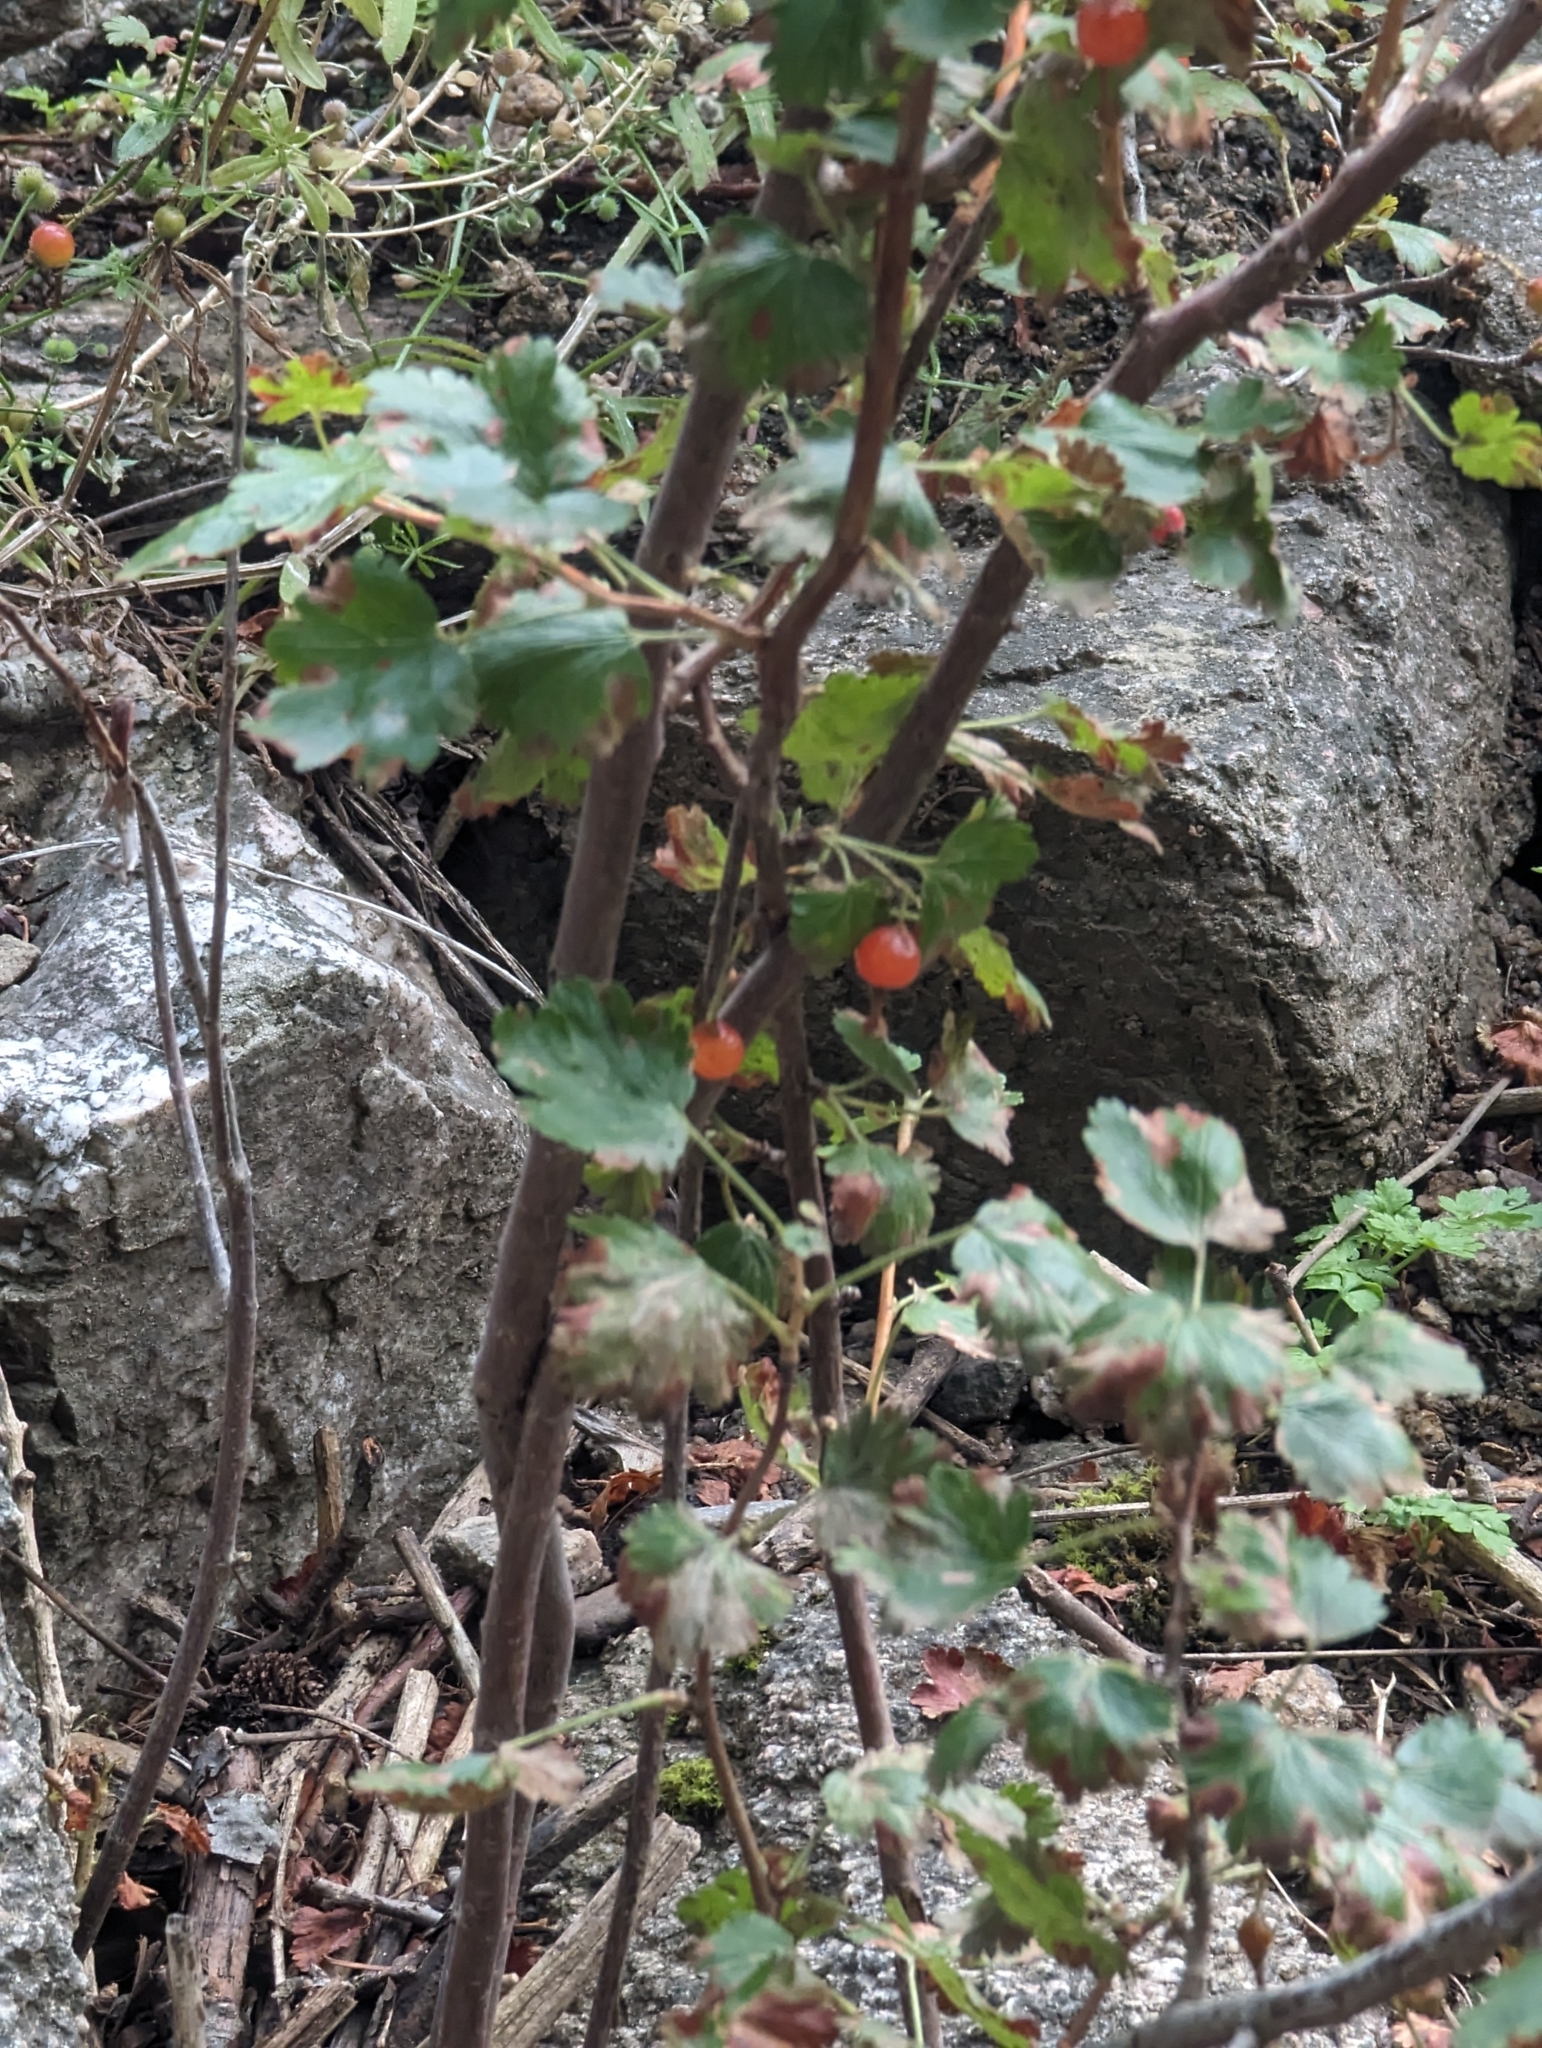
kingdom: Plantae
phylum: Tracheophyta
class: Magnoliopsida
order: Saxifragales
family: Grossulariaceae
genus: Ribes
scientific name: Ribes cereum
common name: Wax currant
